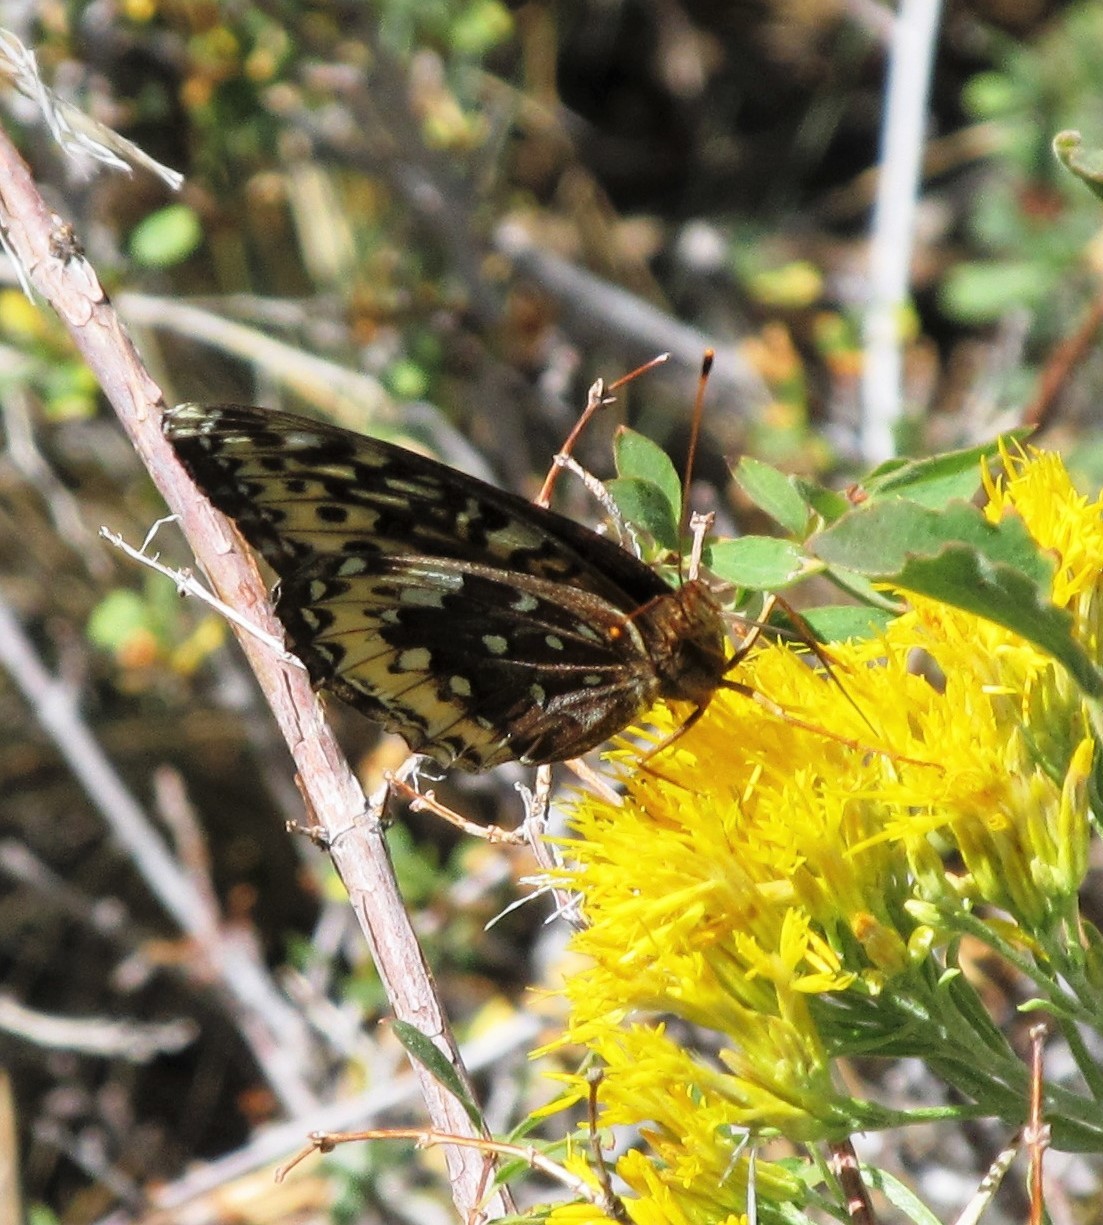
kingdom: Animalia
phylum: Arthropoda
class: Insecta
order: Lepidoptera
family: Nymphalidae
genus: Speyeria
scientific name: Speyeria cybele
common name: Great spangled fritillary
